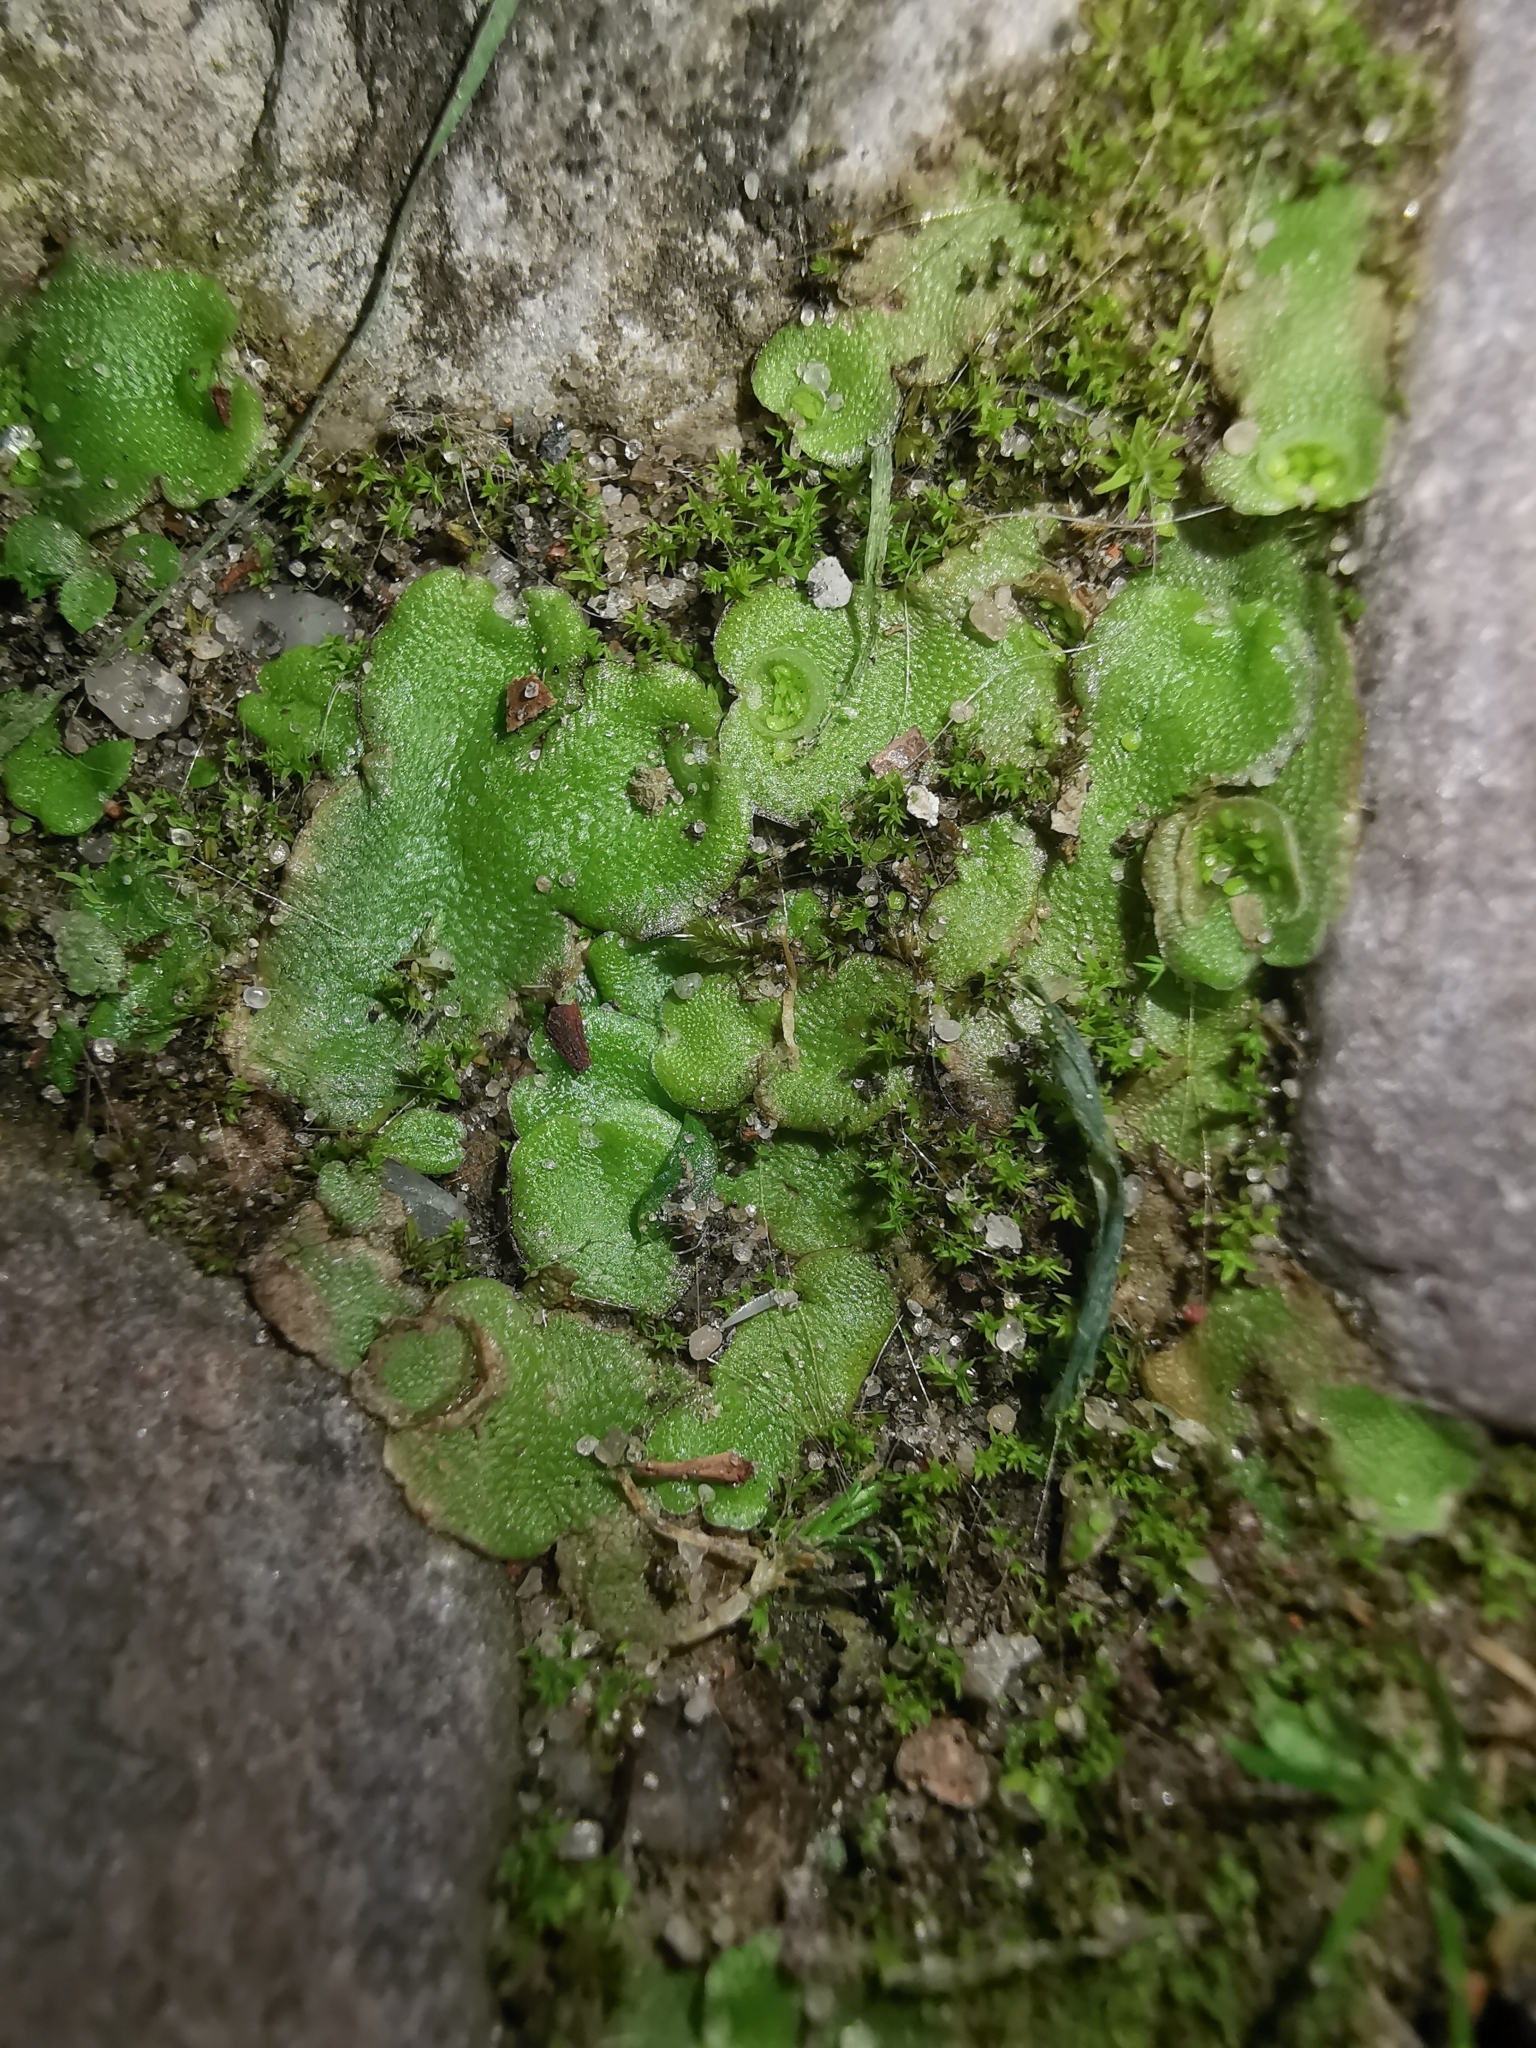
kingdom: Plantae
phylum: Marchantiophyta
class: Marchantiopsida
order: Lunulariales
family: Lunulariaceae
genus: Lunularia
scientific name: Lunularia cruciata
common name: Crescent-cup liverwort
